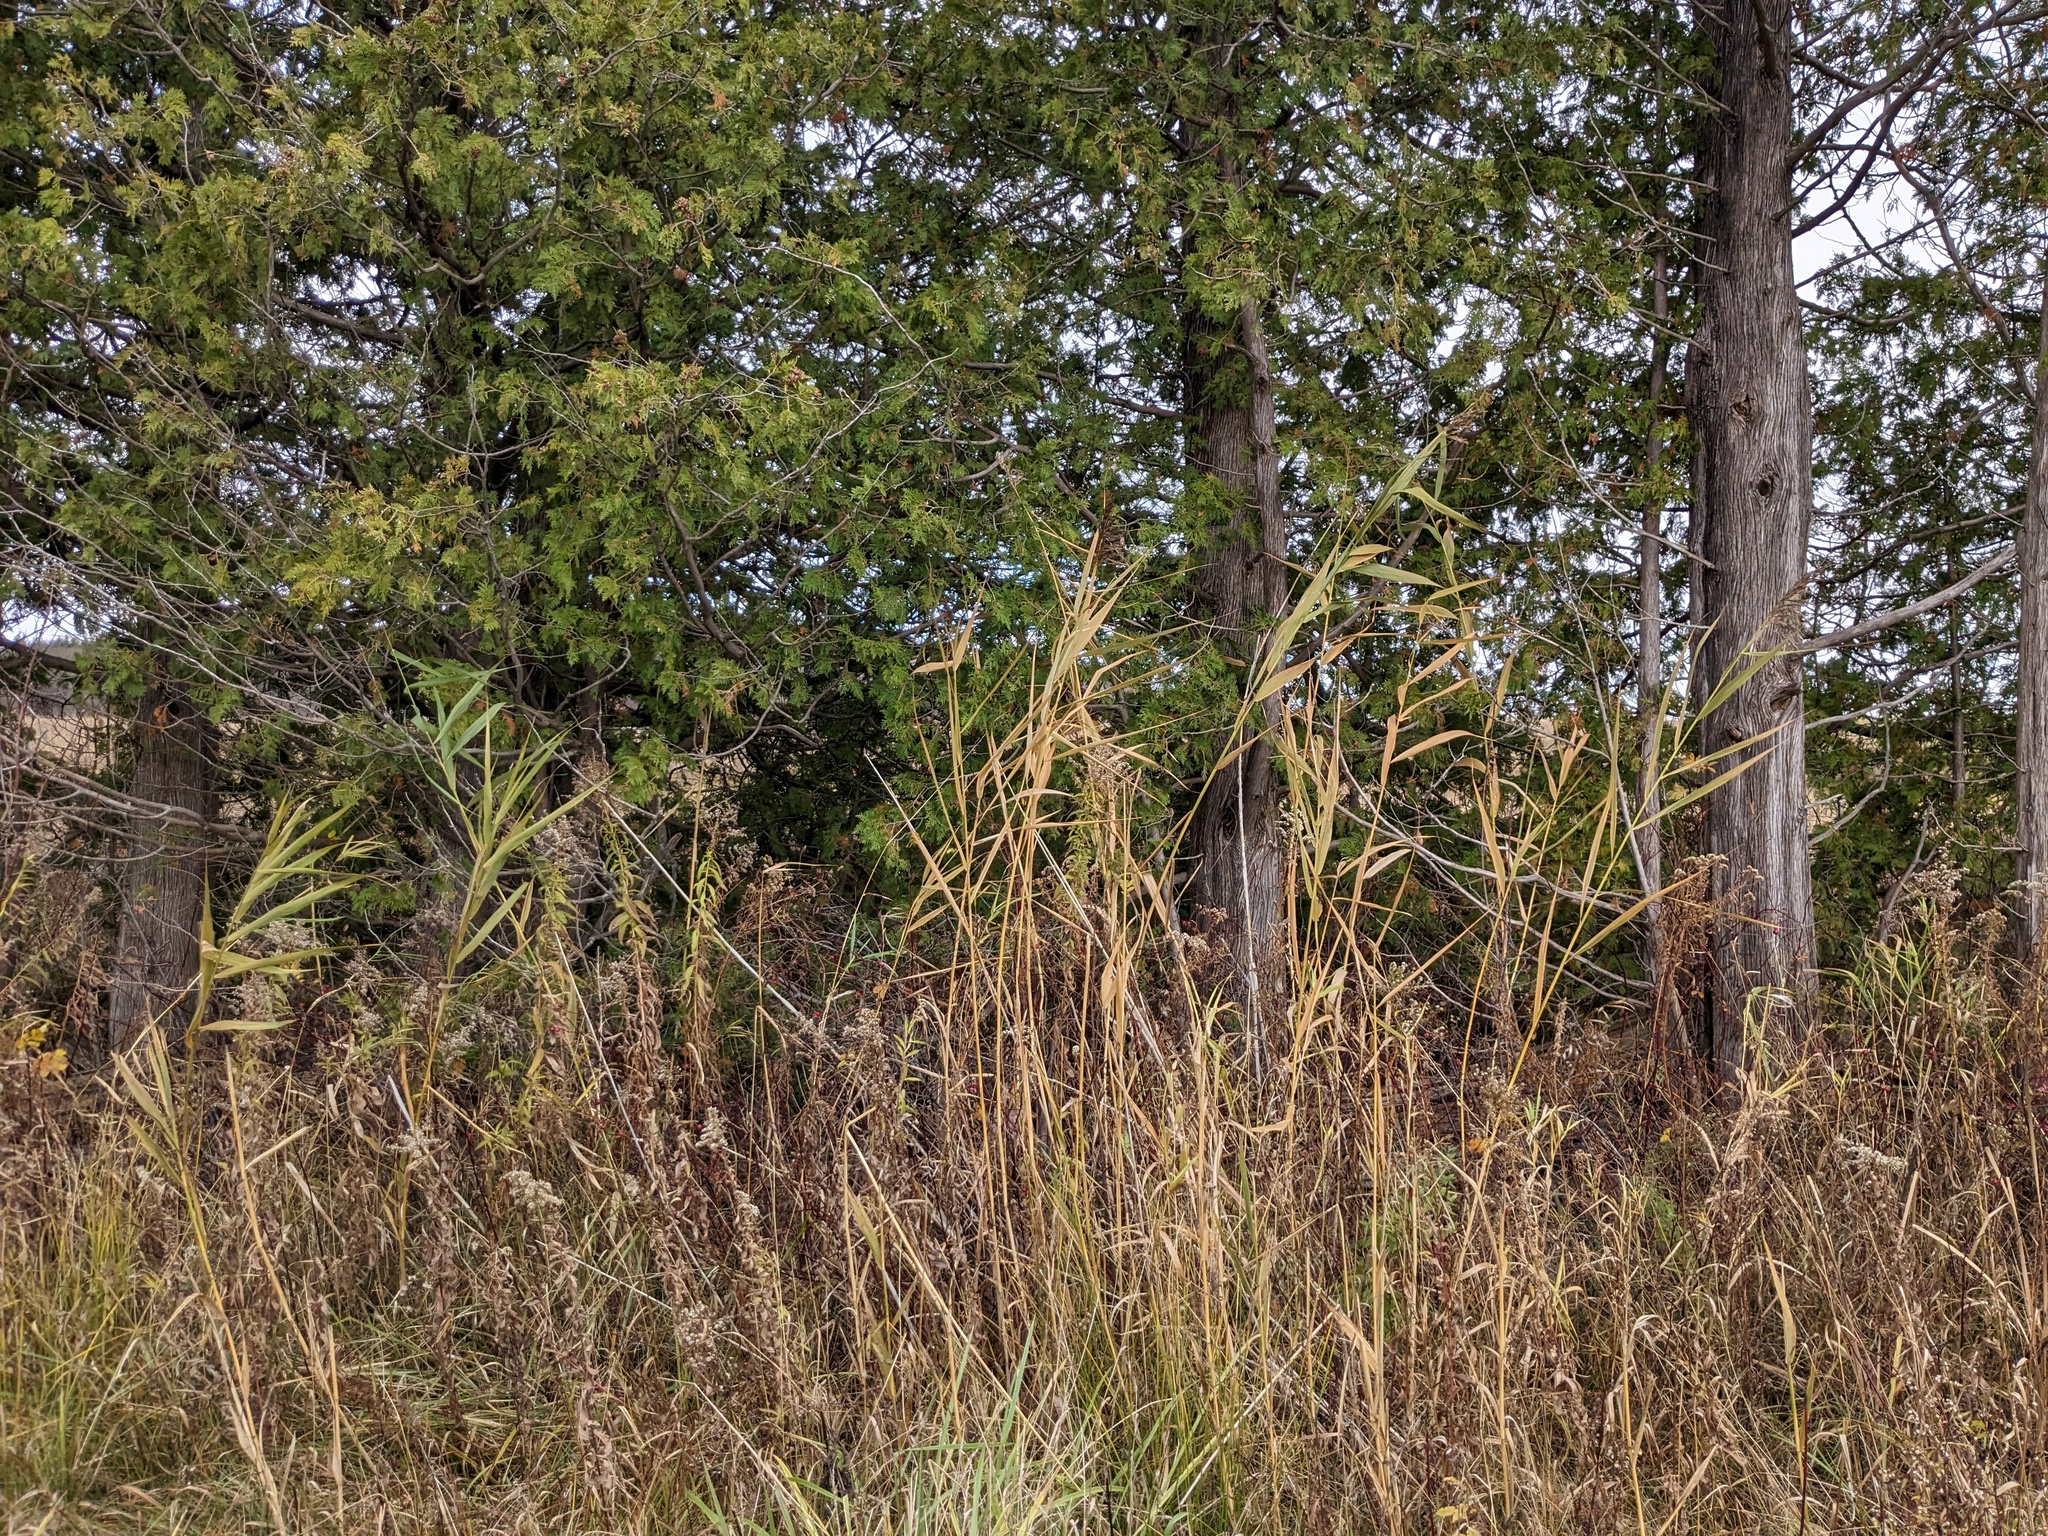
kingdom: Plantae
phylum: Tracheophyta
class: Liliopsida
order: Poales
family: Poaceae
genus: Phragmites
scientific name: Phragmites australis
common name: Common reed
